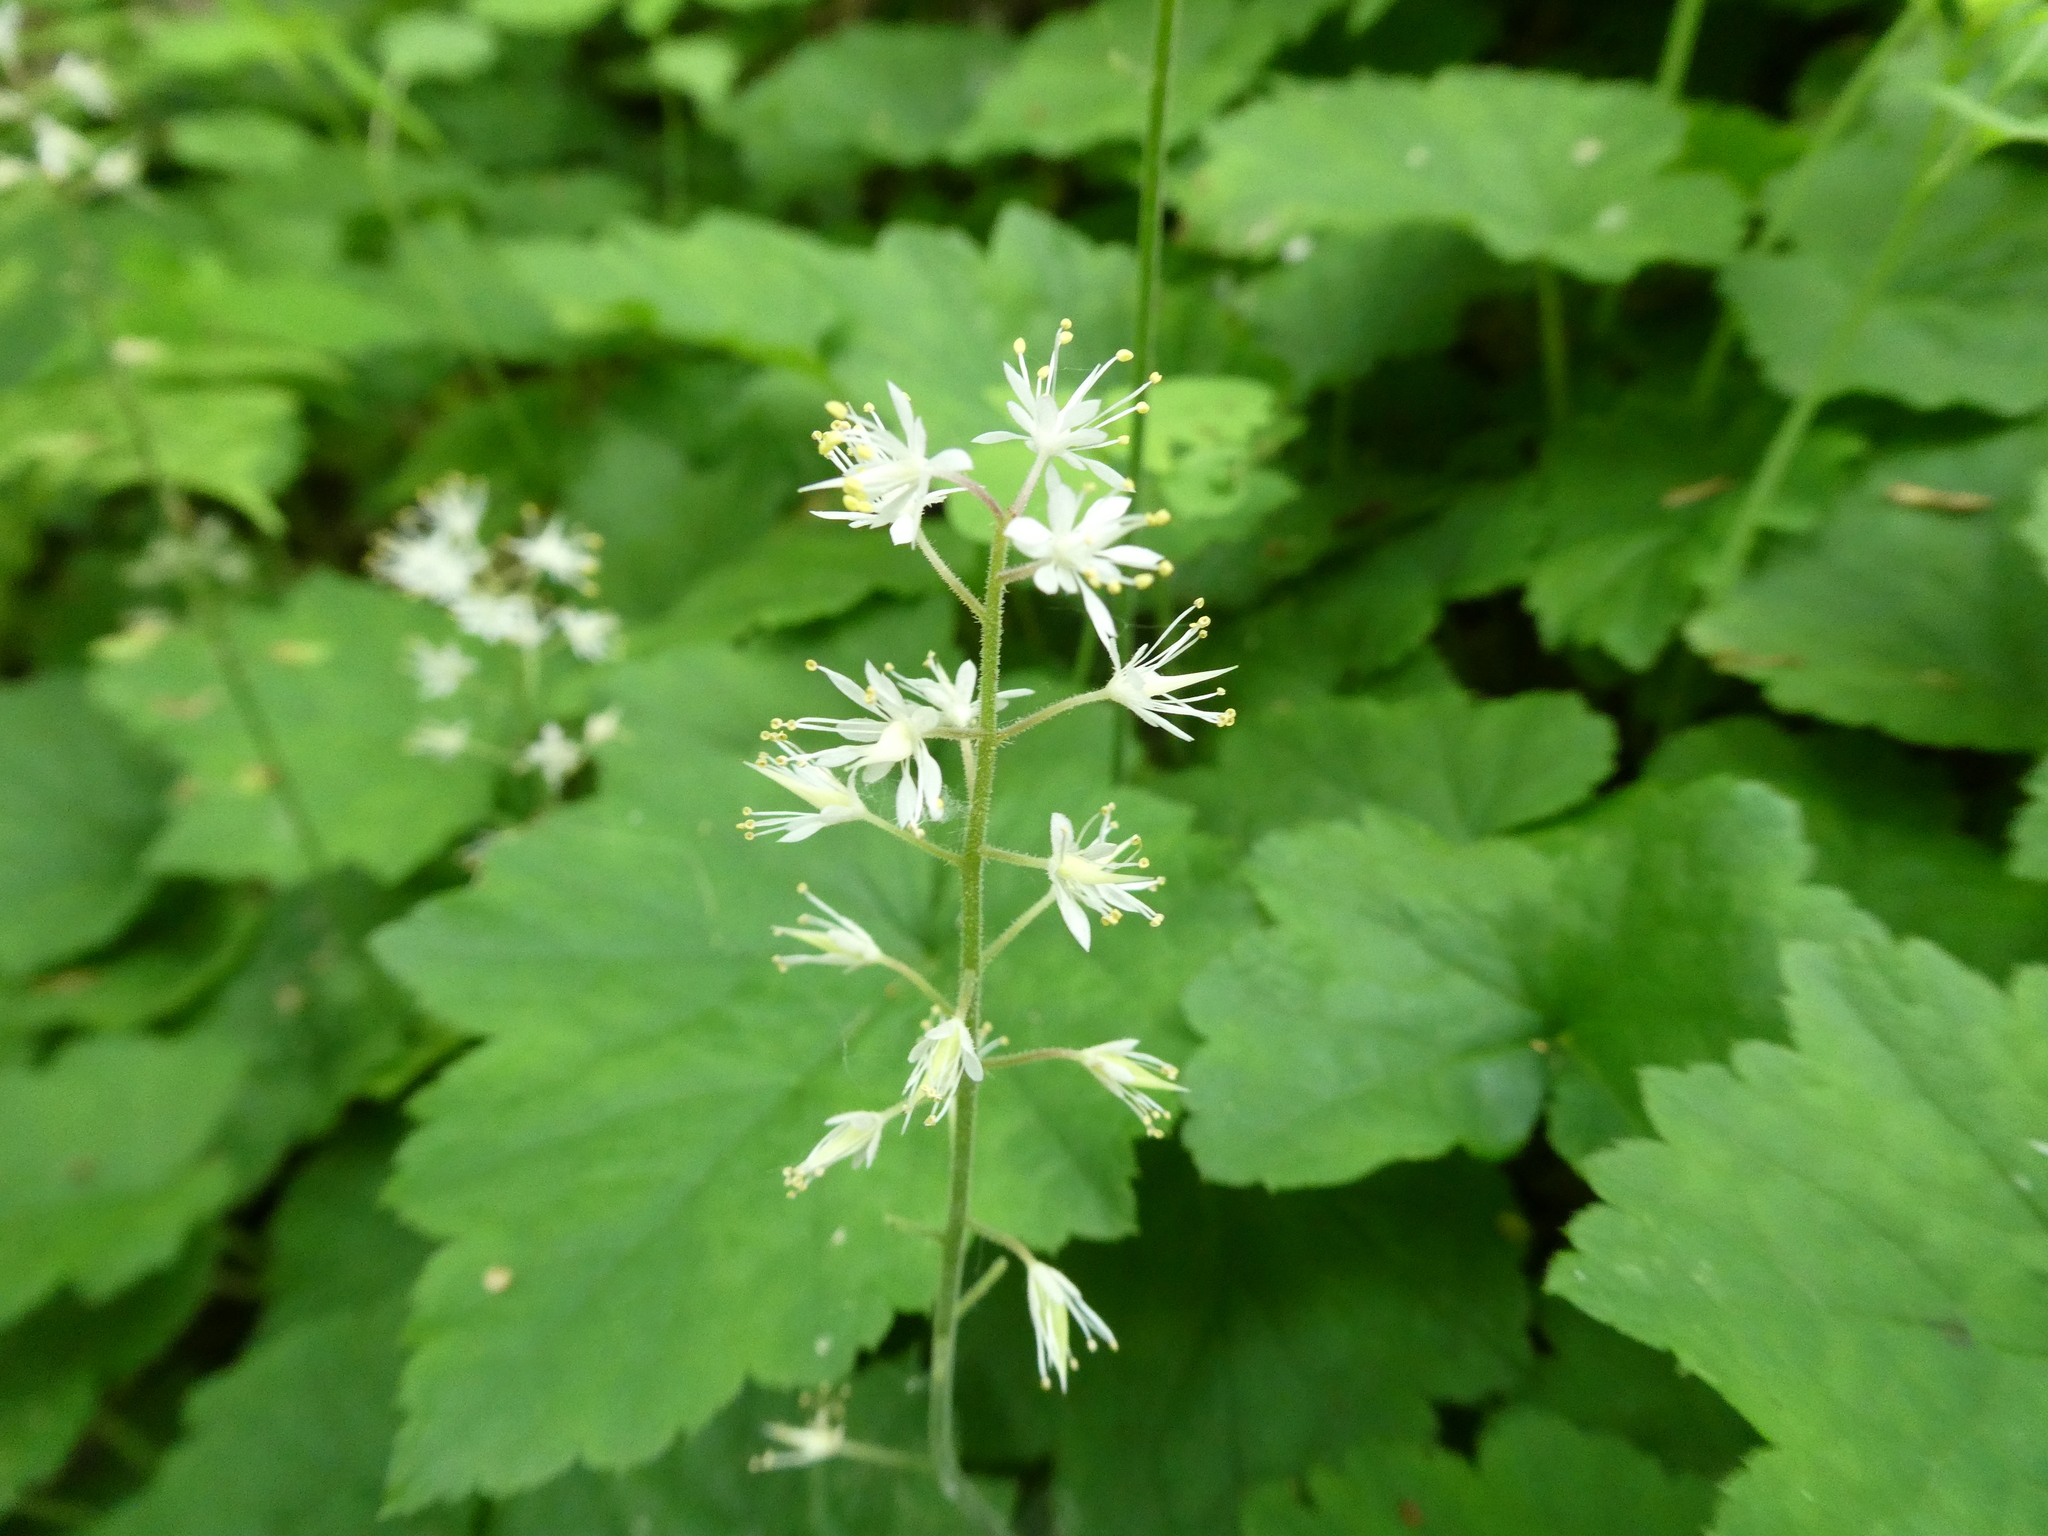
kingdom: Plantae
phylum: Tracheophyta
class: Magnoliopsida
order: Saxifragales
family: Saxifragaceae
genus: Tiarella
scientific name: Tiarella stolonifera
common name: Stoloniferous foamflower
